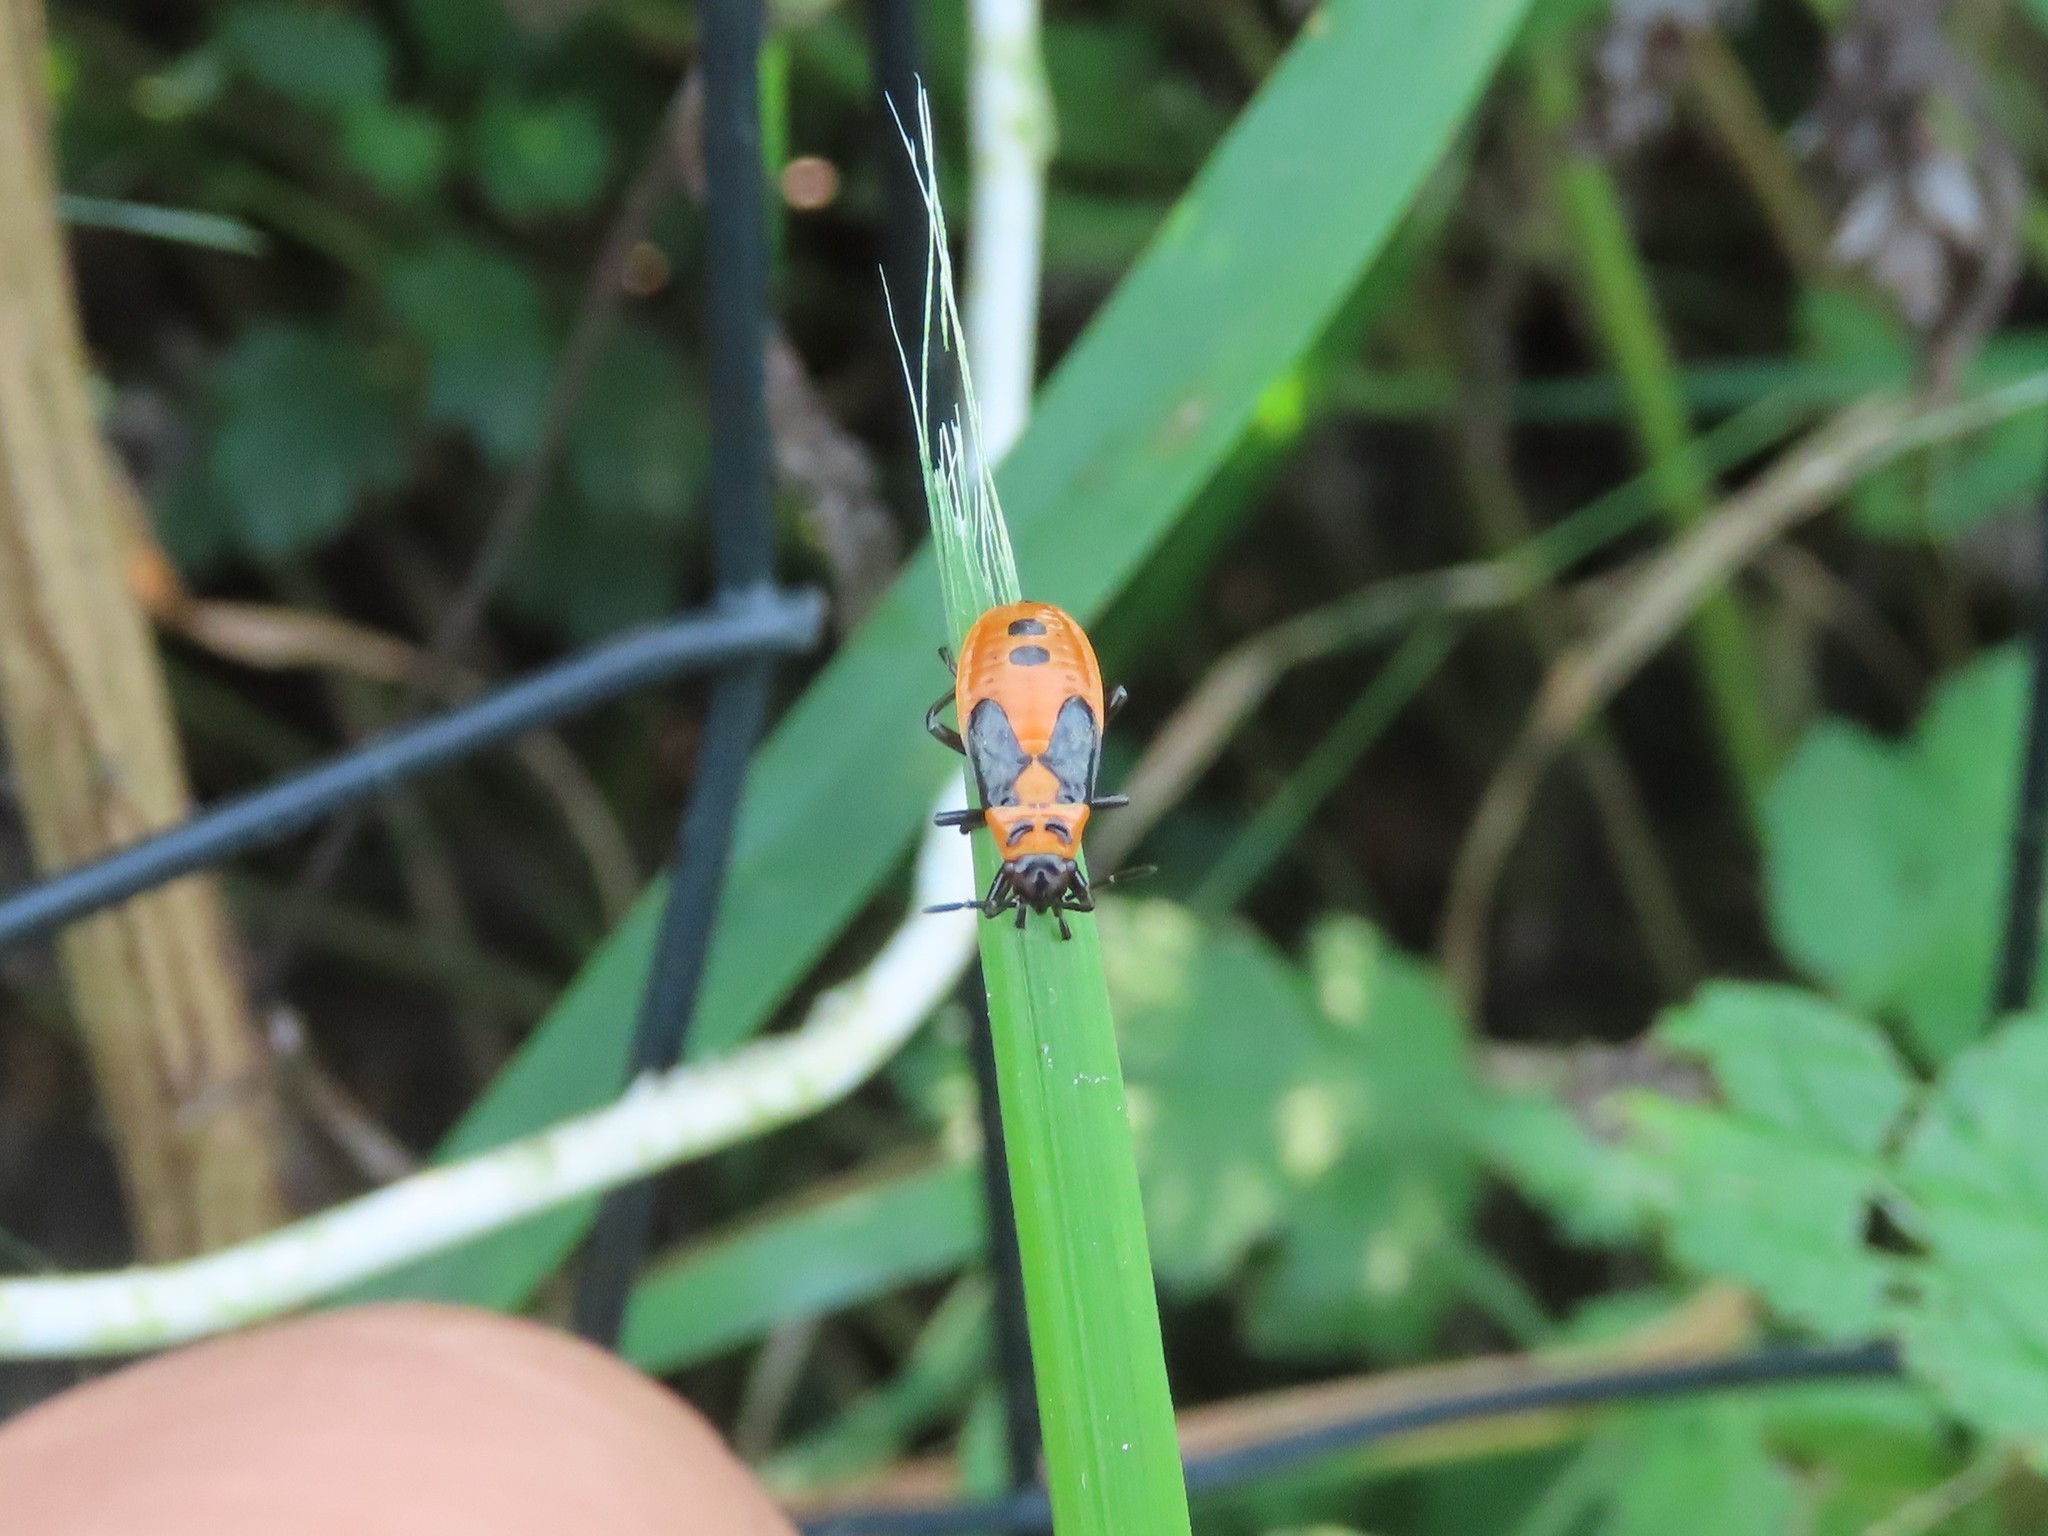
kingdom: Animalia
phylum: Arthropoda
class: Insecta
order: Hemiptera
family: Lygaeidae
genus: Lygaeus
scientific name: Lygaeus turcicus
